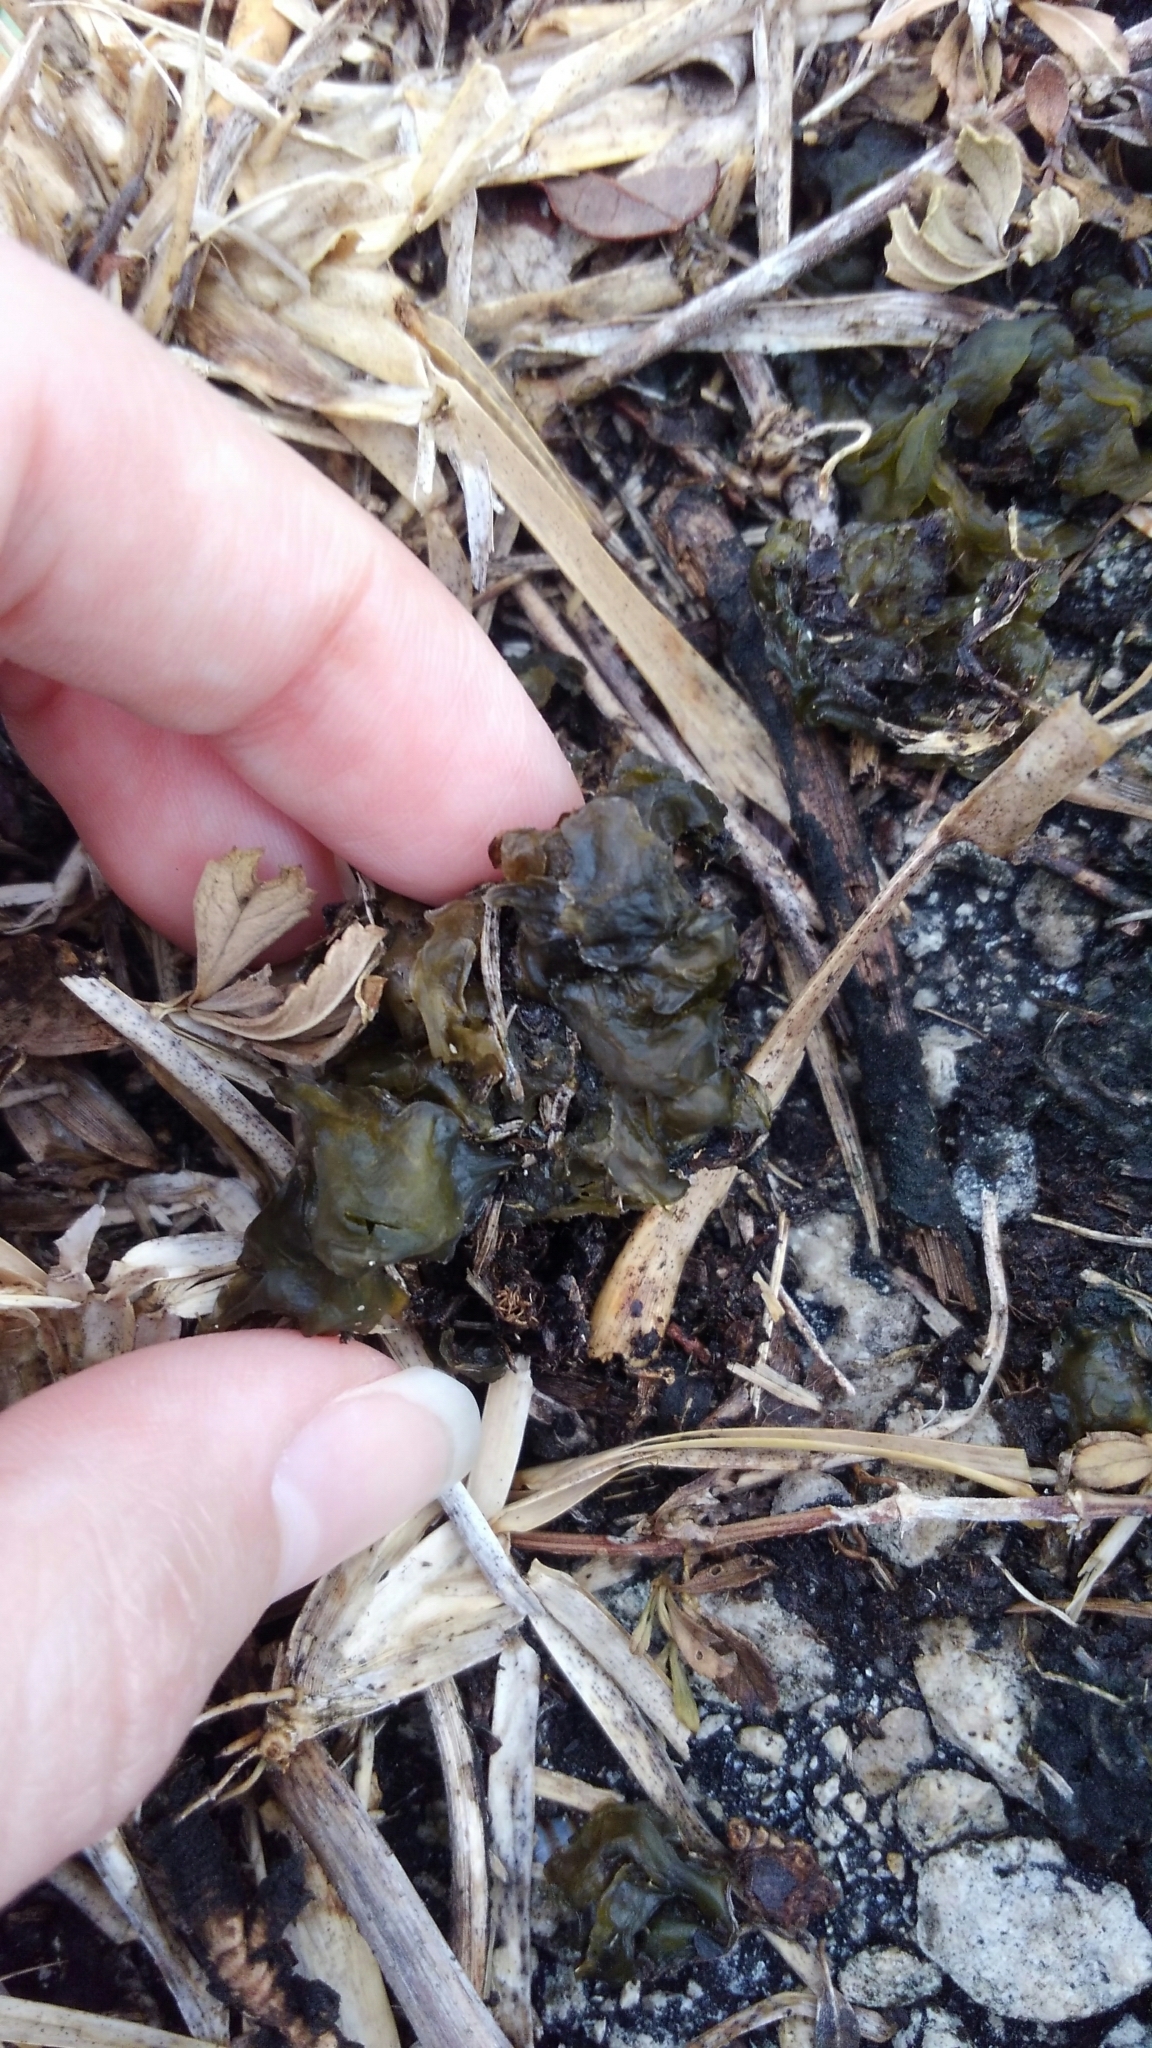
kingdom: Bacteria
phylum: Cyanobacteria
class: Cyanobacteriia
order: Cyanobacteriales
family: Nostocaceae
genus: Nostoc
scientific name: Nostoc commune
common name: Star jelly
